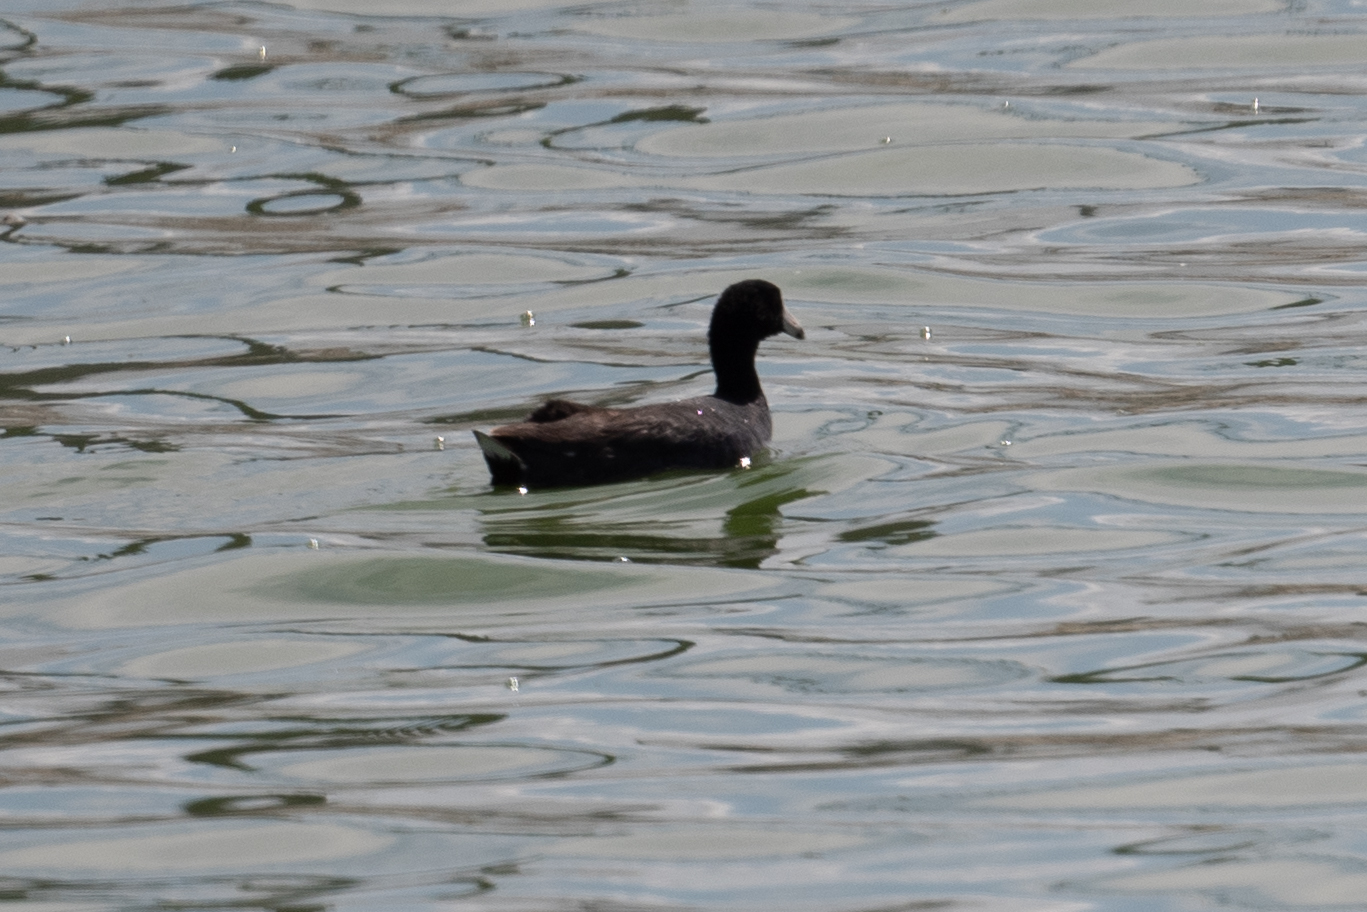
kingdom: Animalia
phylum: Chordata
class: Aves
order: Gruiformes
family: Rallidae
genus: Fulica
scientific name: Fulica americana
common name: American coot
